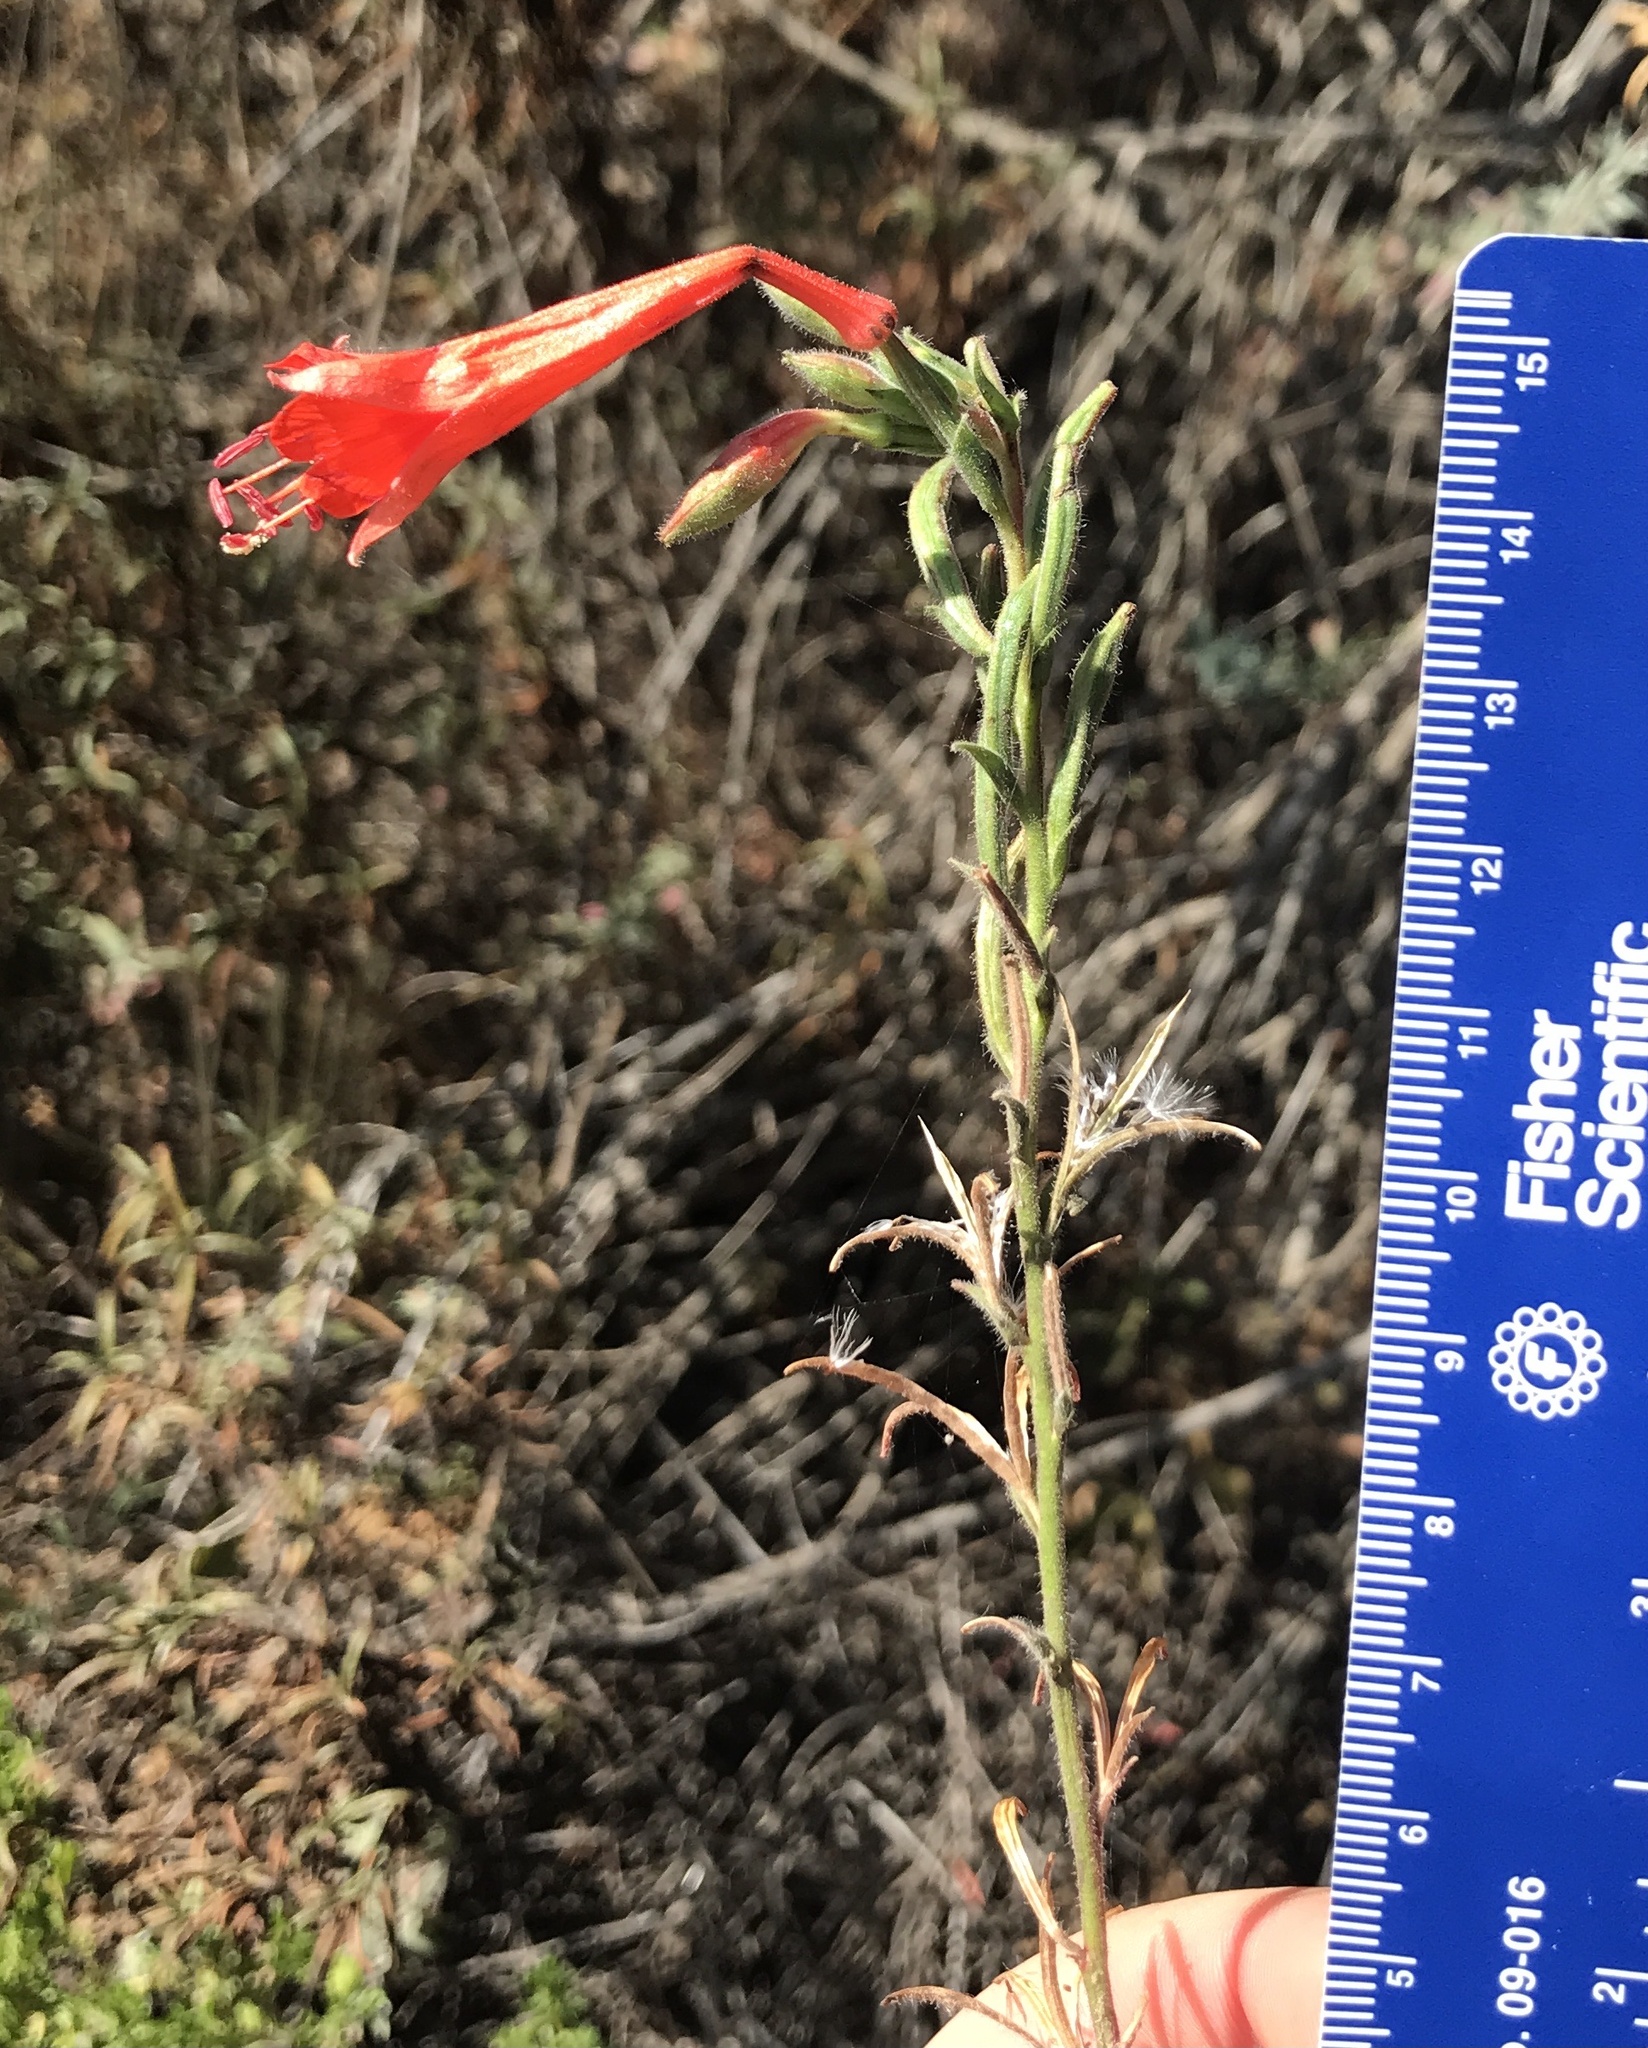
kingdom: Plantae
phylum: Tracheophyta
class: Magnoliopsida
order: Myrtales
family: Onagraceae
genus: Epilobium
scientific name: Epilobium canum
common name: California-fuchsia
